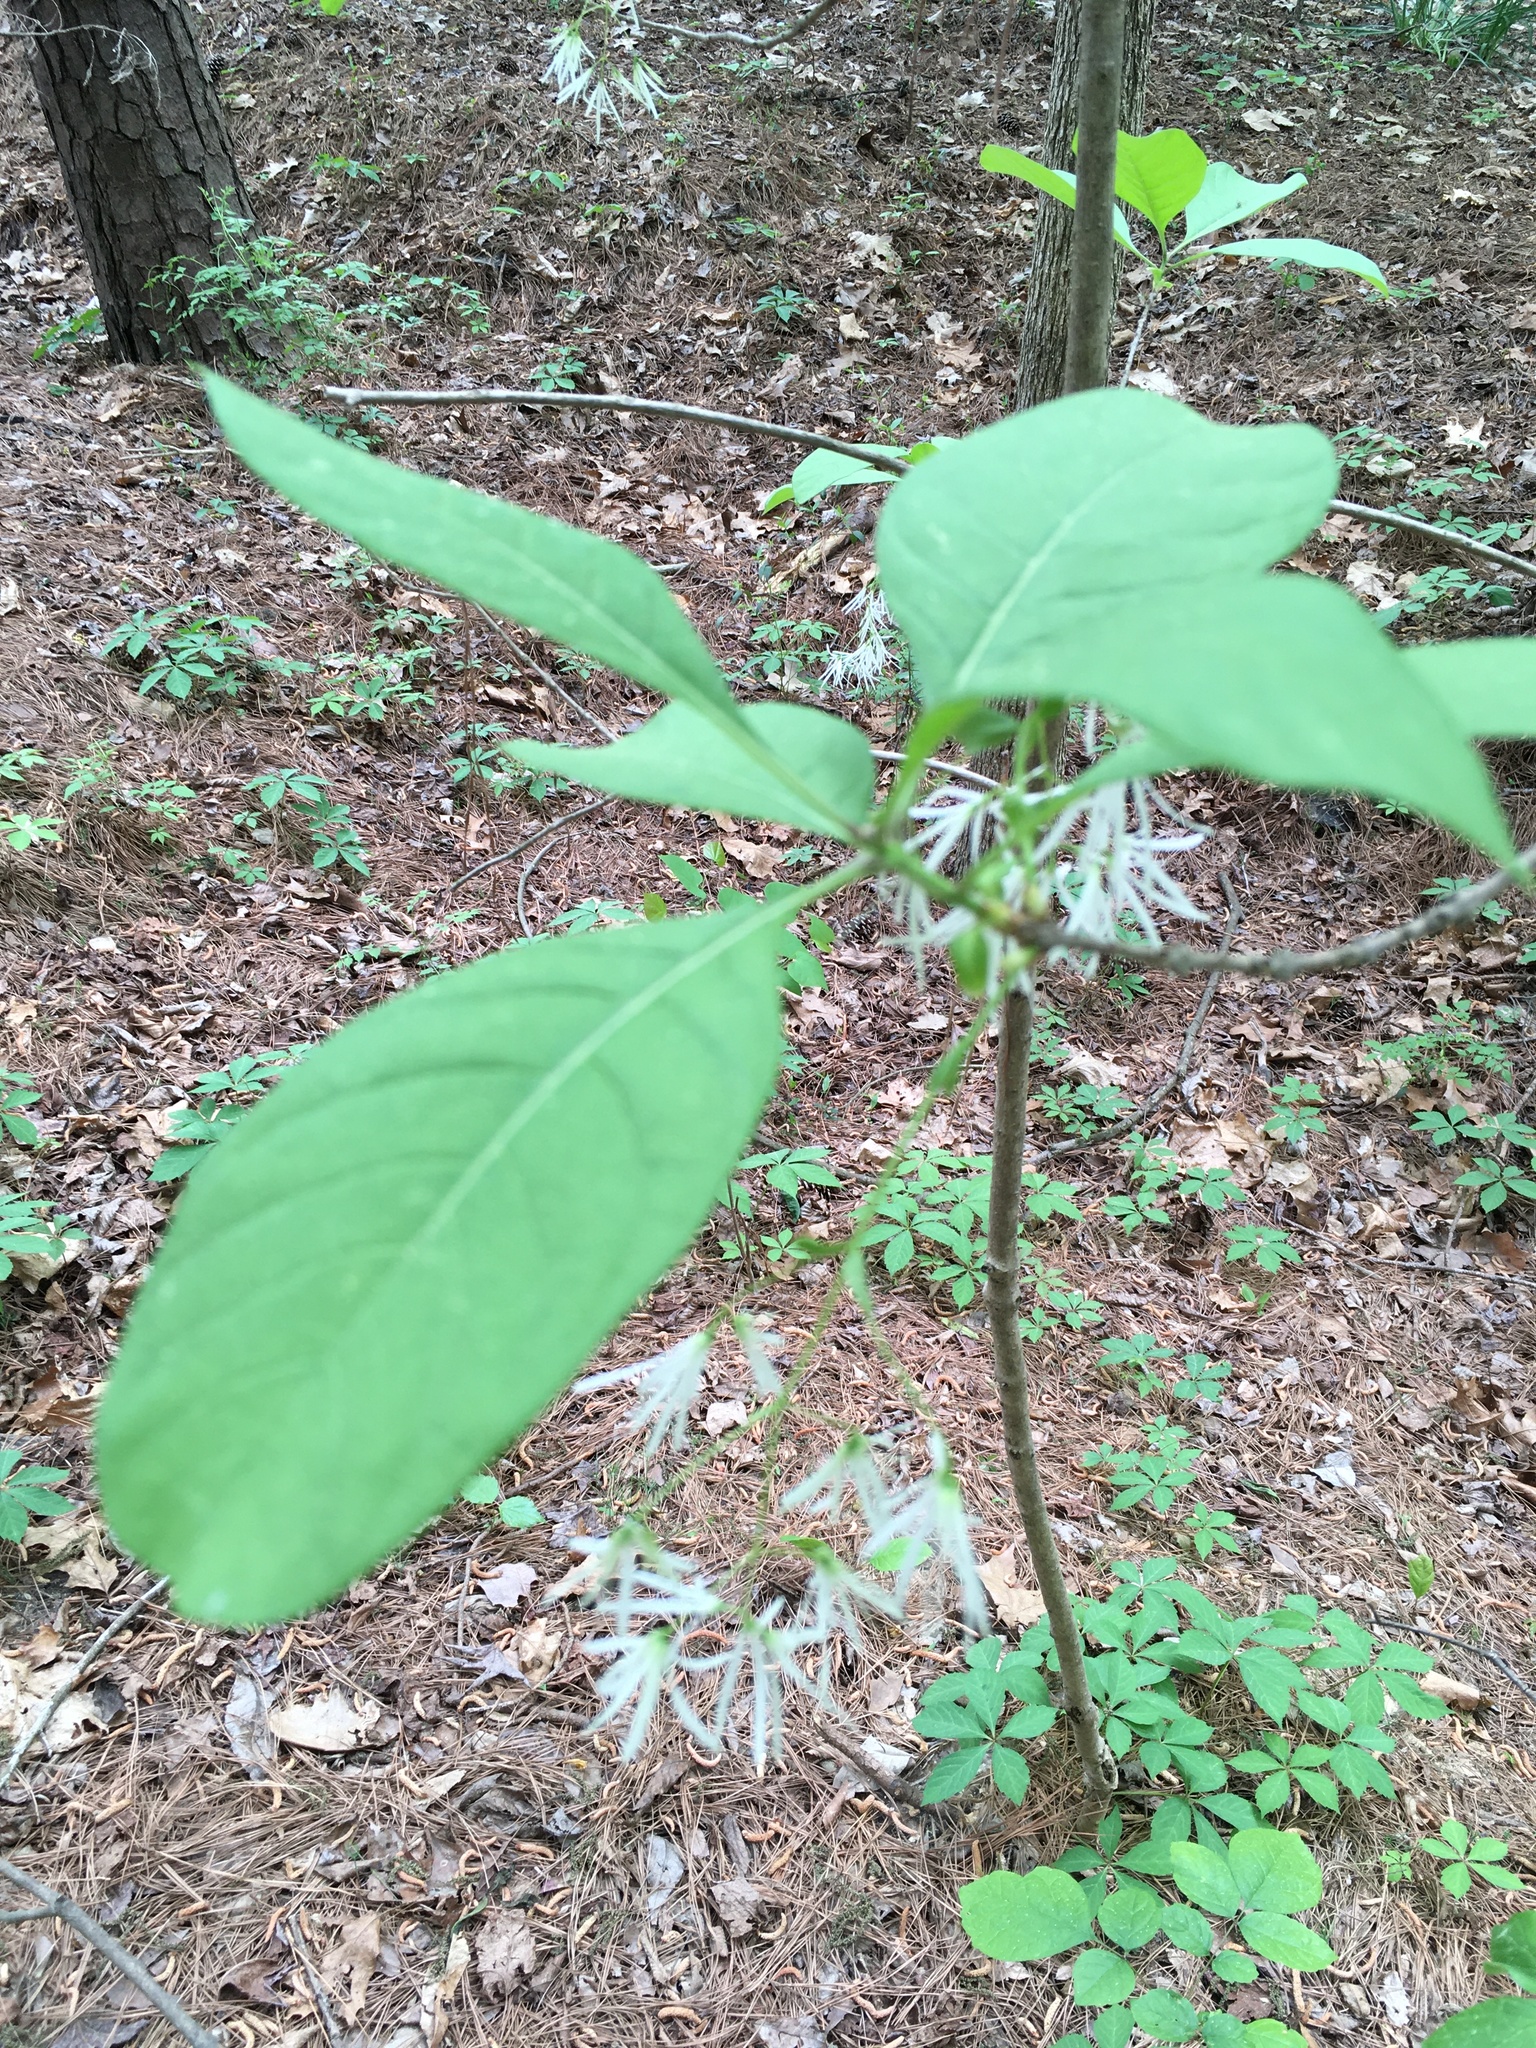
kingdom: Plantae
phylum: Tracheophyta
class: Magnoliopsida
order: Lamiales
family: Oleaceae
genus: Chionanthus
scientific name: Chionanthus virginicus
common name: American fringetree
